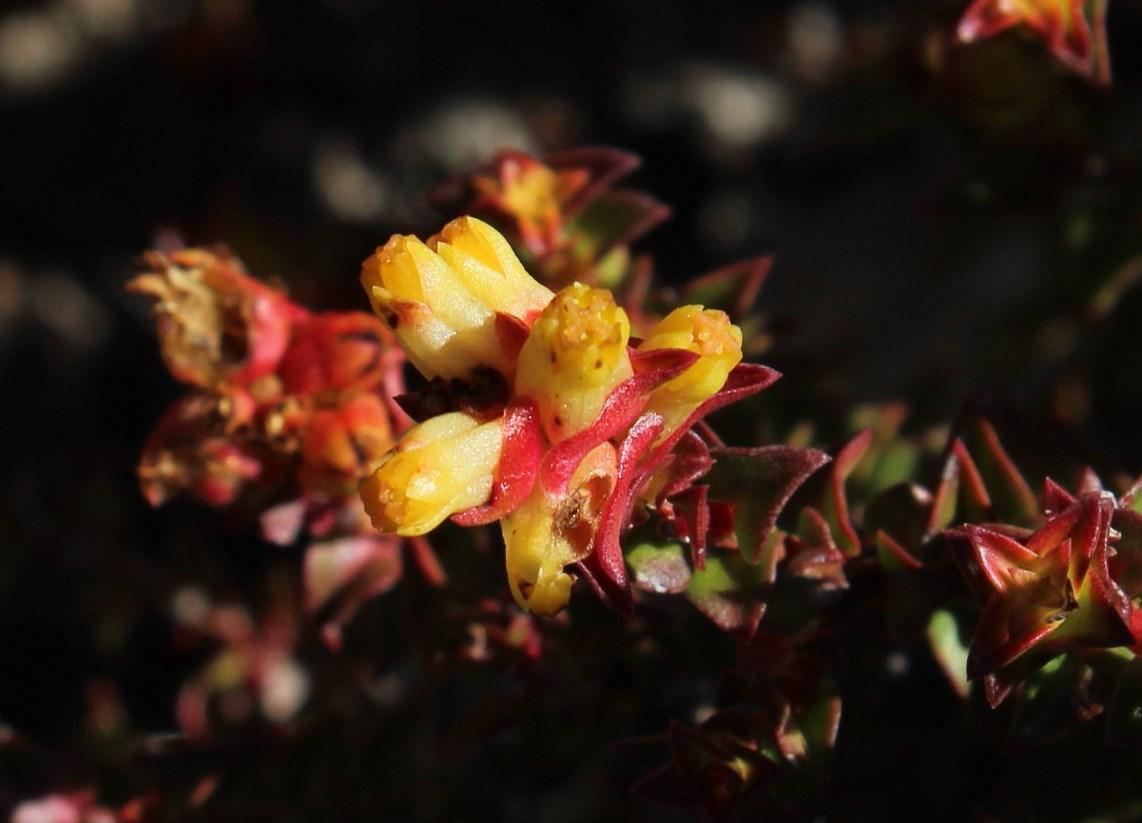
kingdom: Plantae
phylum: Tracheophyta
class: Magnoliopsida
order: Myrtales
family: Penaeaceae
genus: Penaea
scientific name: Penaea mucronata
